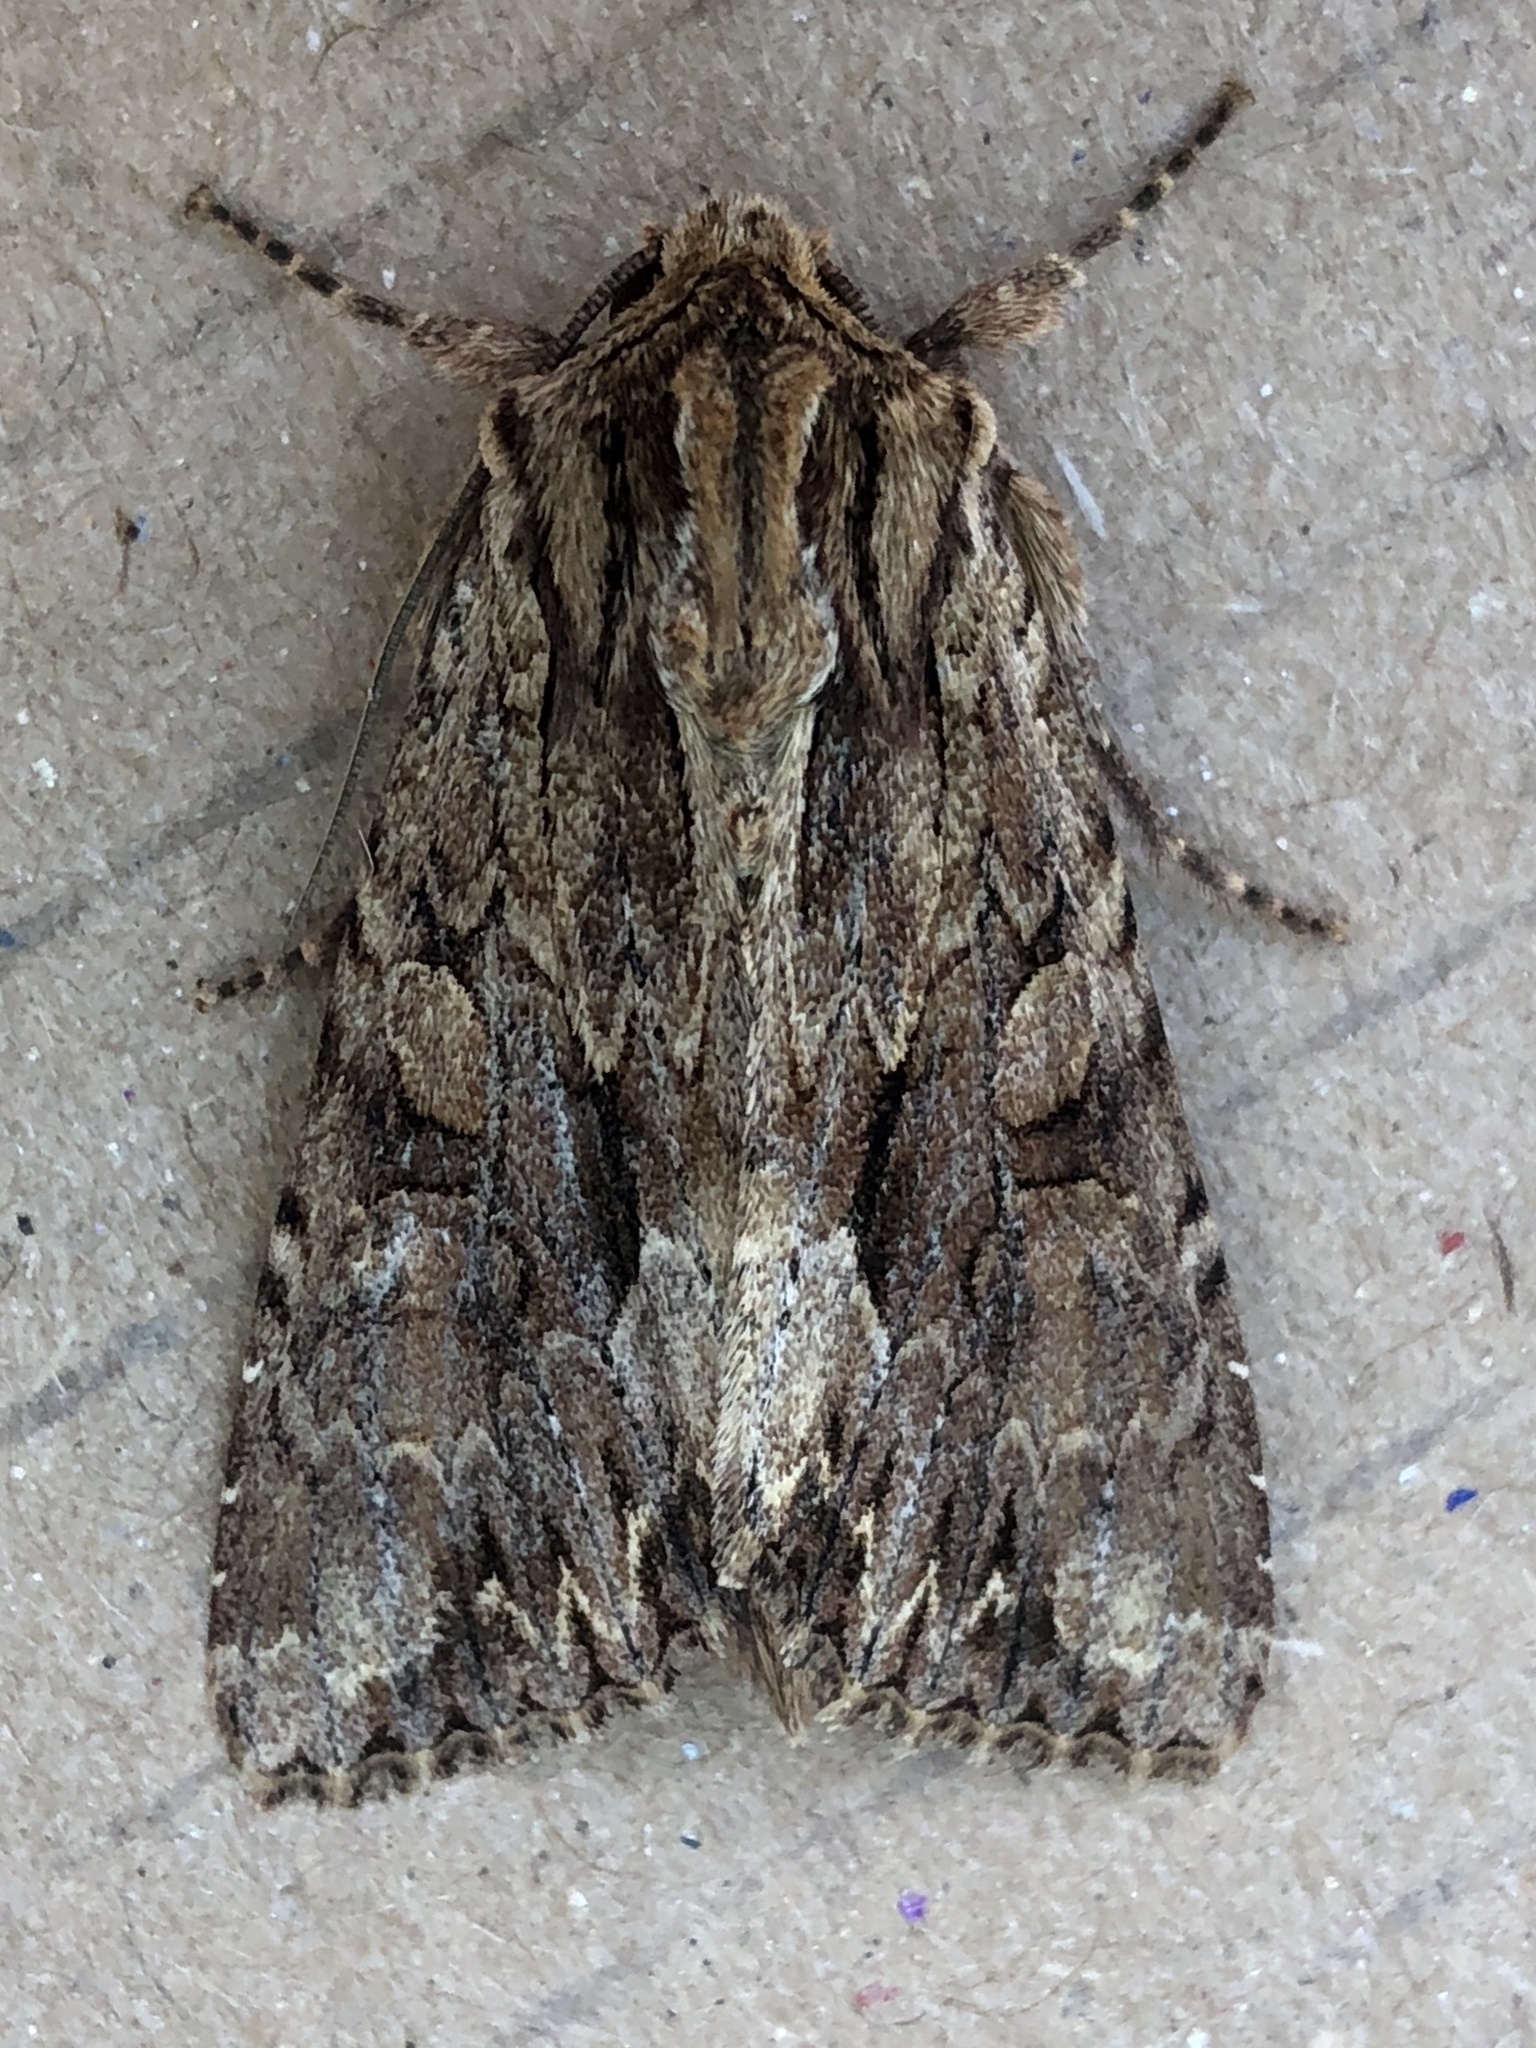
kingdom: Animalia
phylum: Arthropoda
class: Insecta
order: Lepidoptera
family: Noctuidae
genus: Apamea
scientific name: Apamea monoglypha
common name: Dark arches
